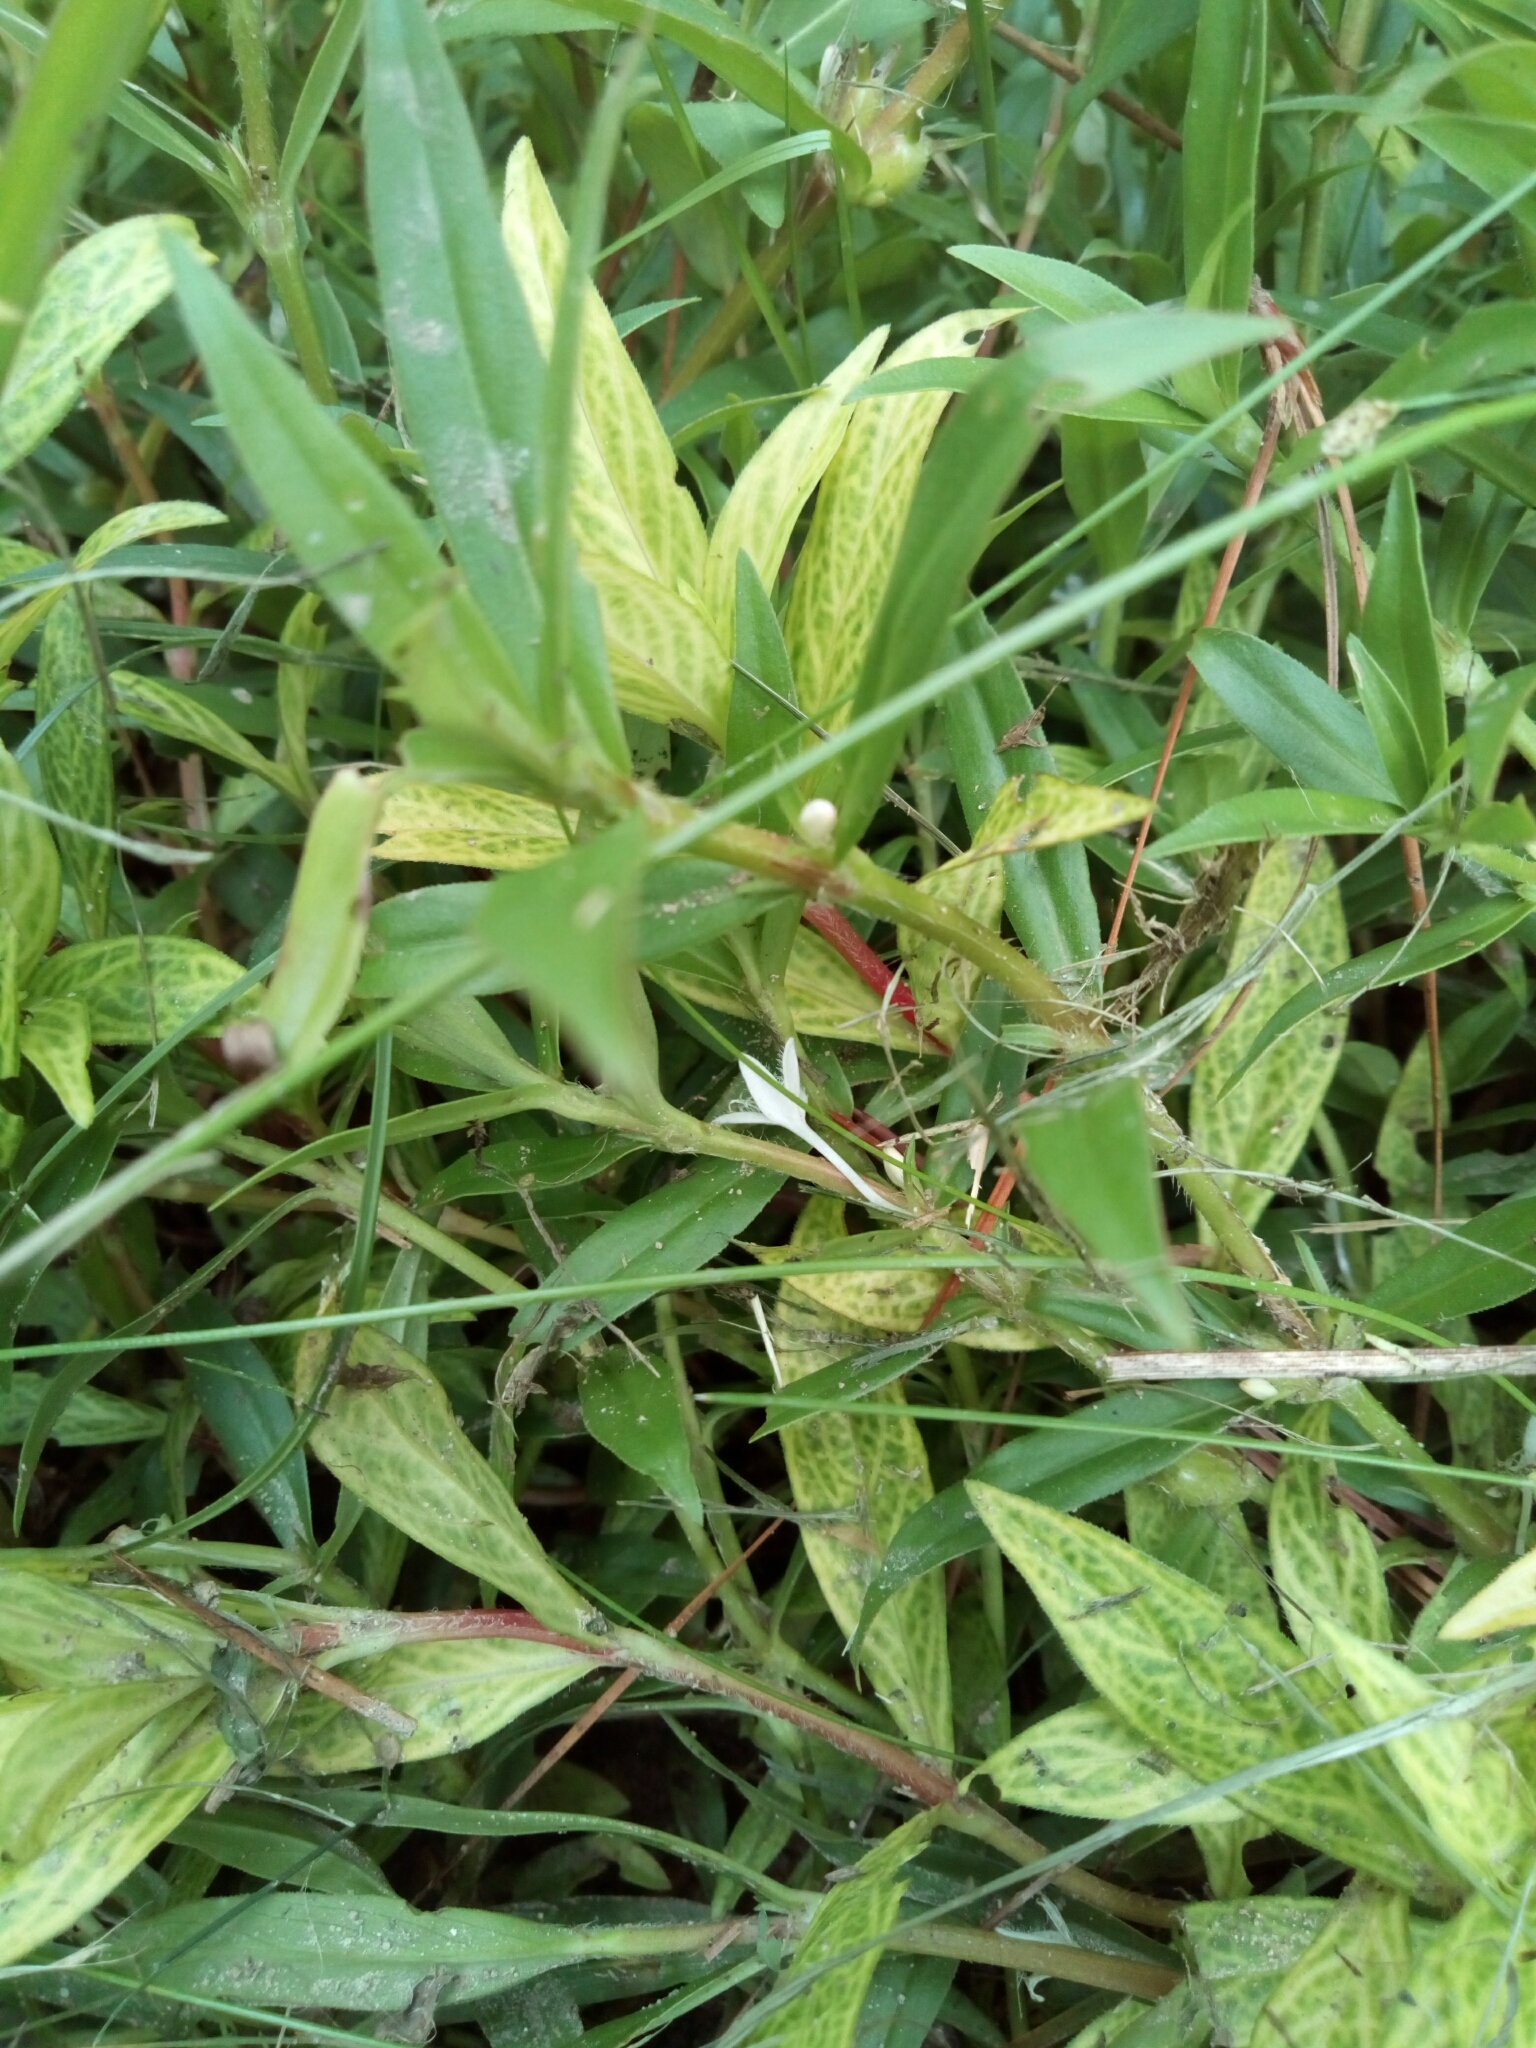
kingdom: Plantae
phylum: Tracheophyta
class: Magnoliopsida
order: Gentianales
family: Rubiaceae
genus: Diodia
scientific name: Diodia virginiana
